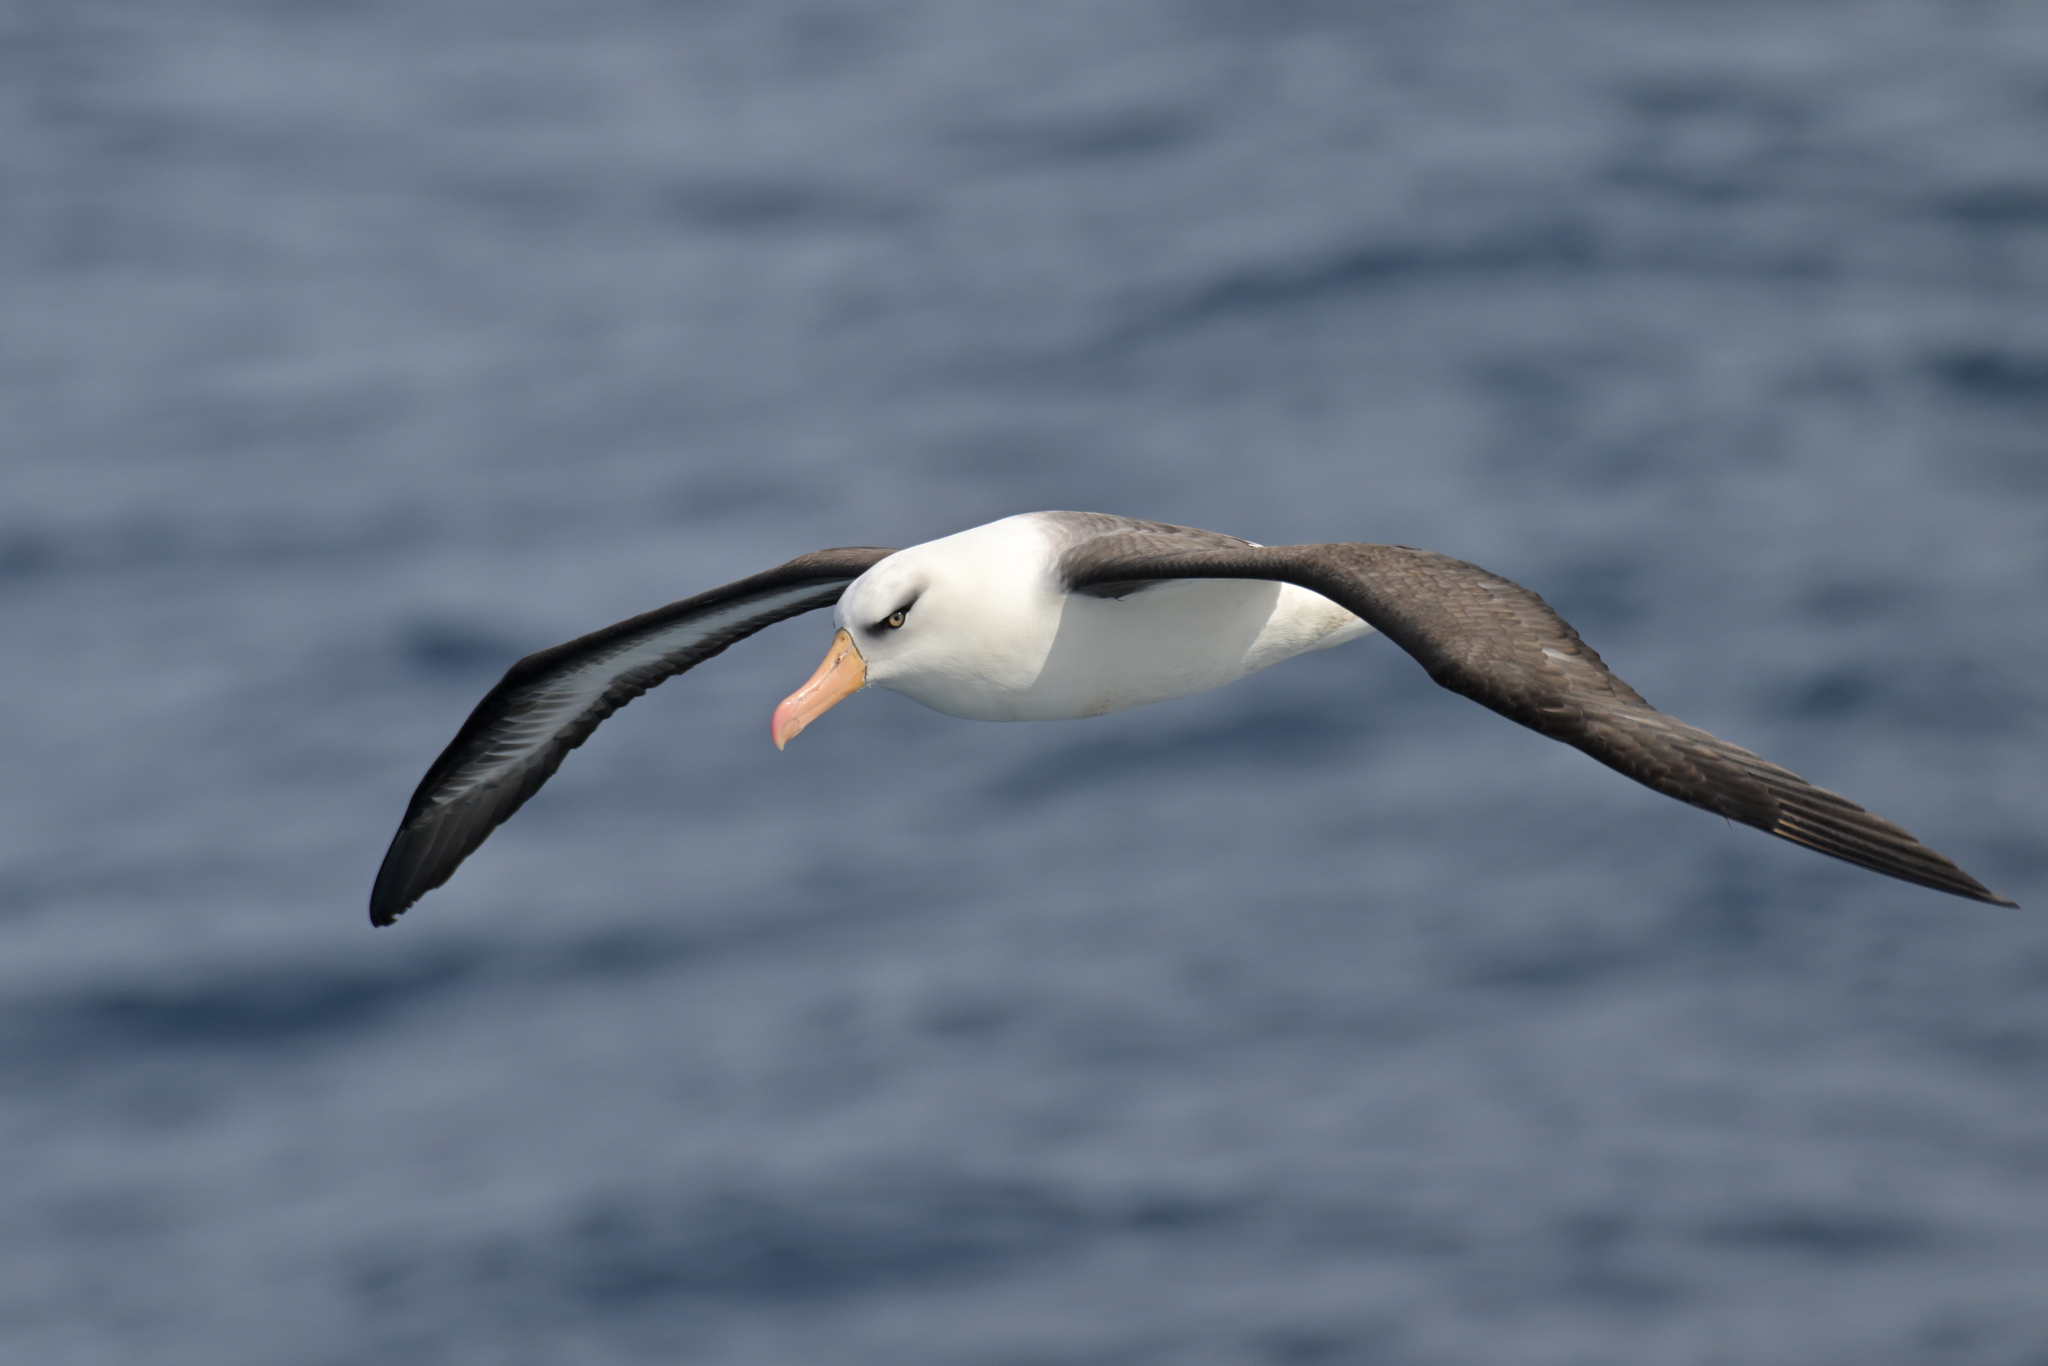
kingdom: Animalia
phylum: Chordata
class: Aves
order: Procellariiformes
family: Diomedeidae
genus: Thalassarche
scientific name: Thalassarche impavida
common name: Campbell albatross
